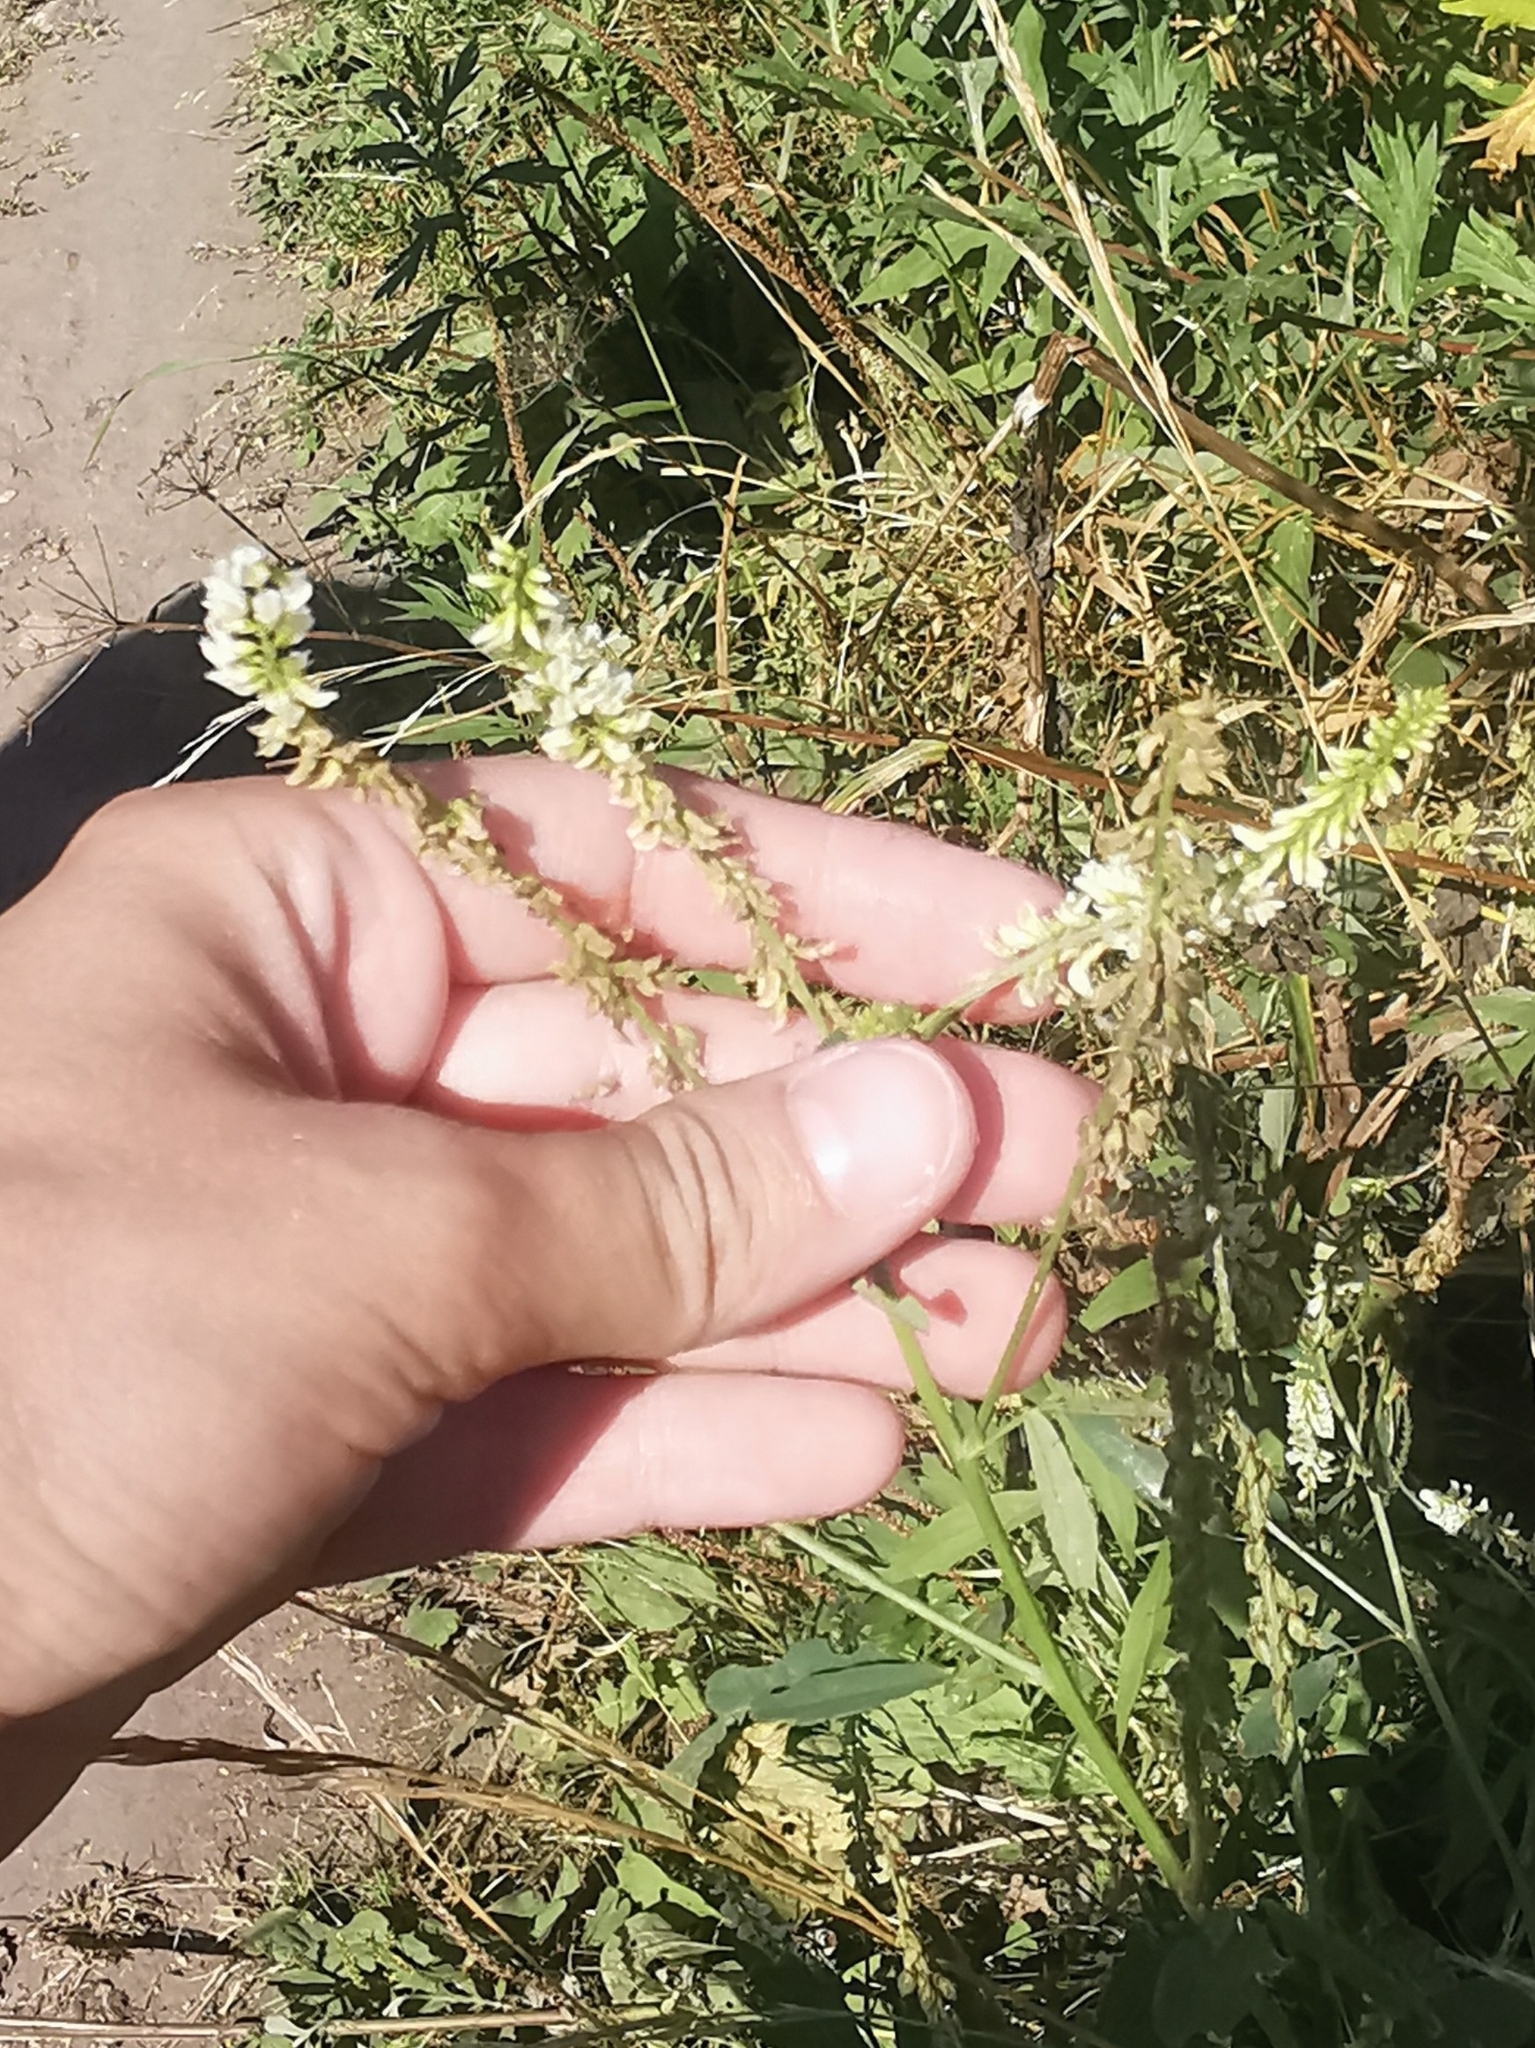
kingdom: Plantae
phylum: Tracheophyta
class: Magnoliopsida
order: Fabales
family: Fabaceae
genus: Melilotus
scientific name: Melilotus albus
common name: White melilot
